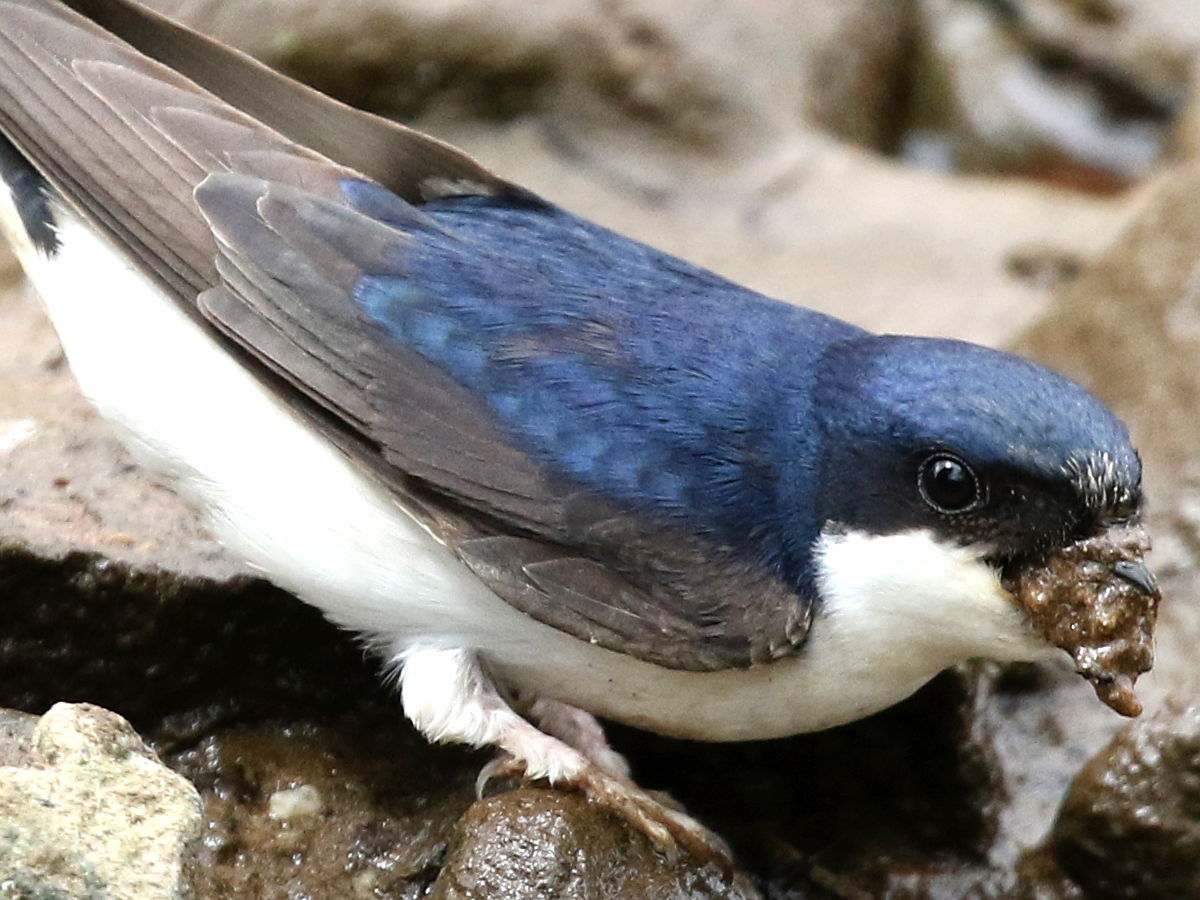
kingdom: Animalia
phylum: Chordata
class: Aves
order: Passeriformes
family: Hirundinidae
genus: Delichon
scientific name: Delichon urbicum
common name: Common house martin
